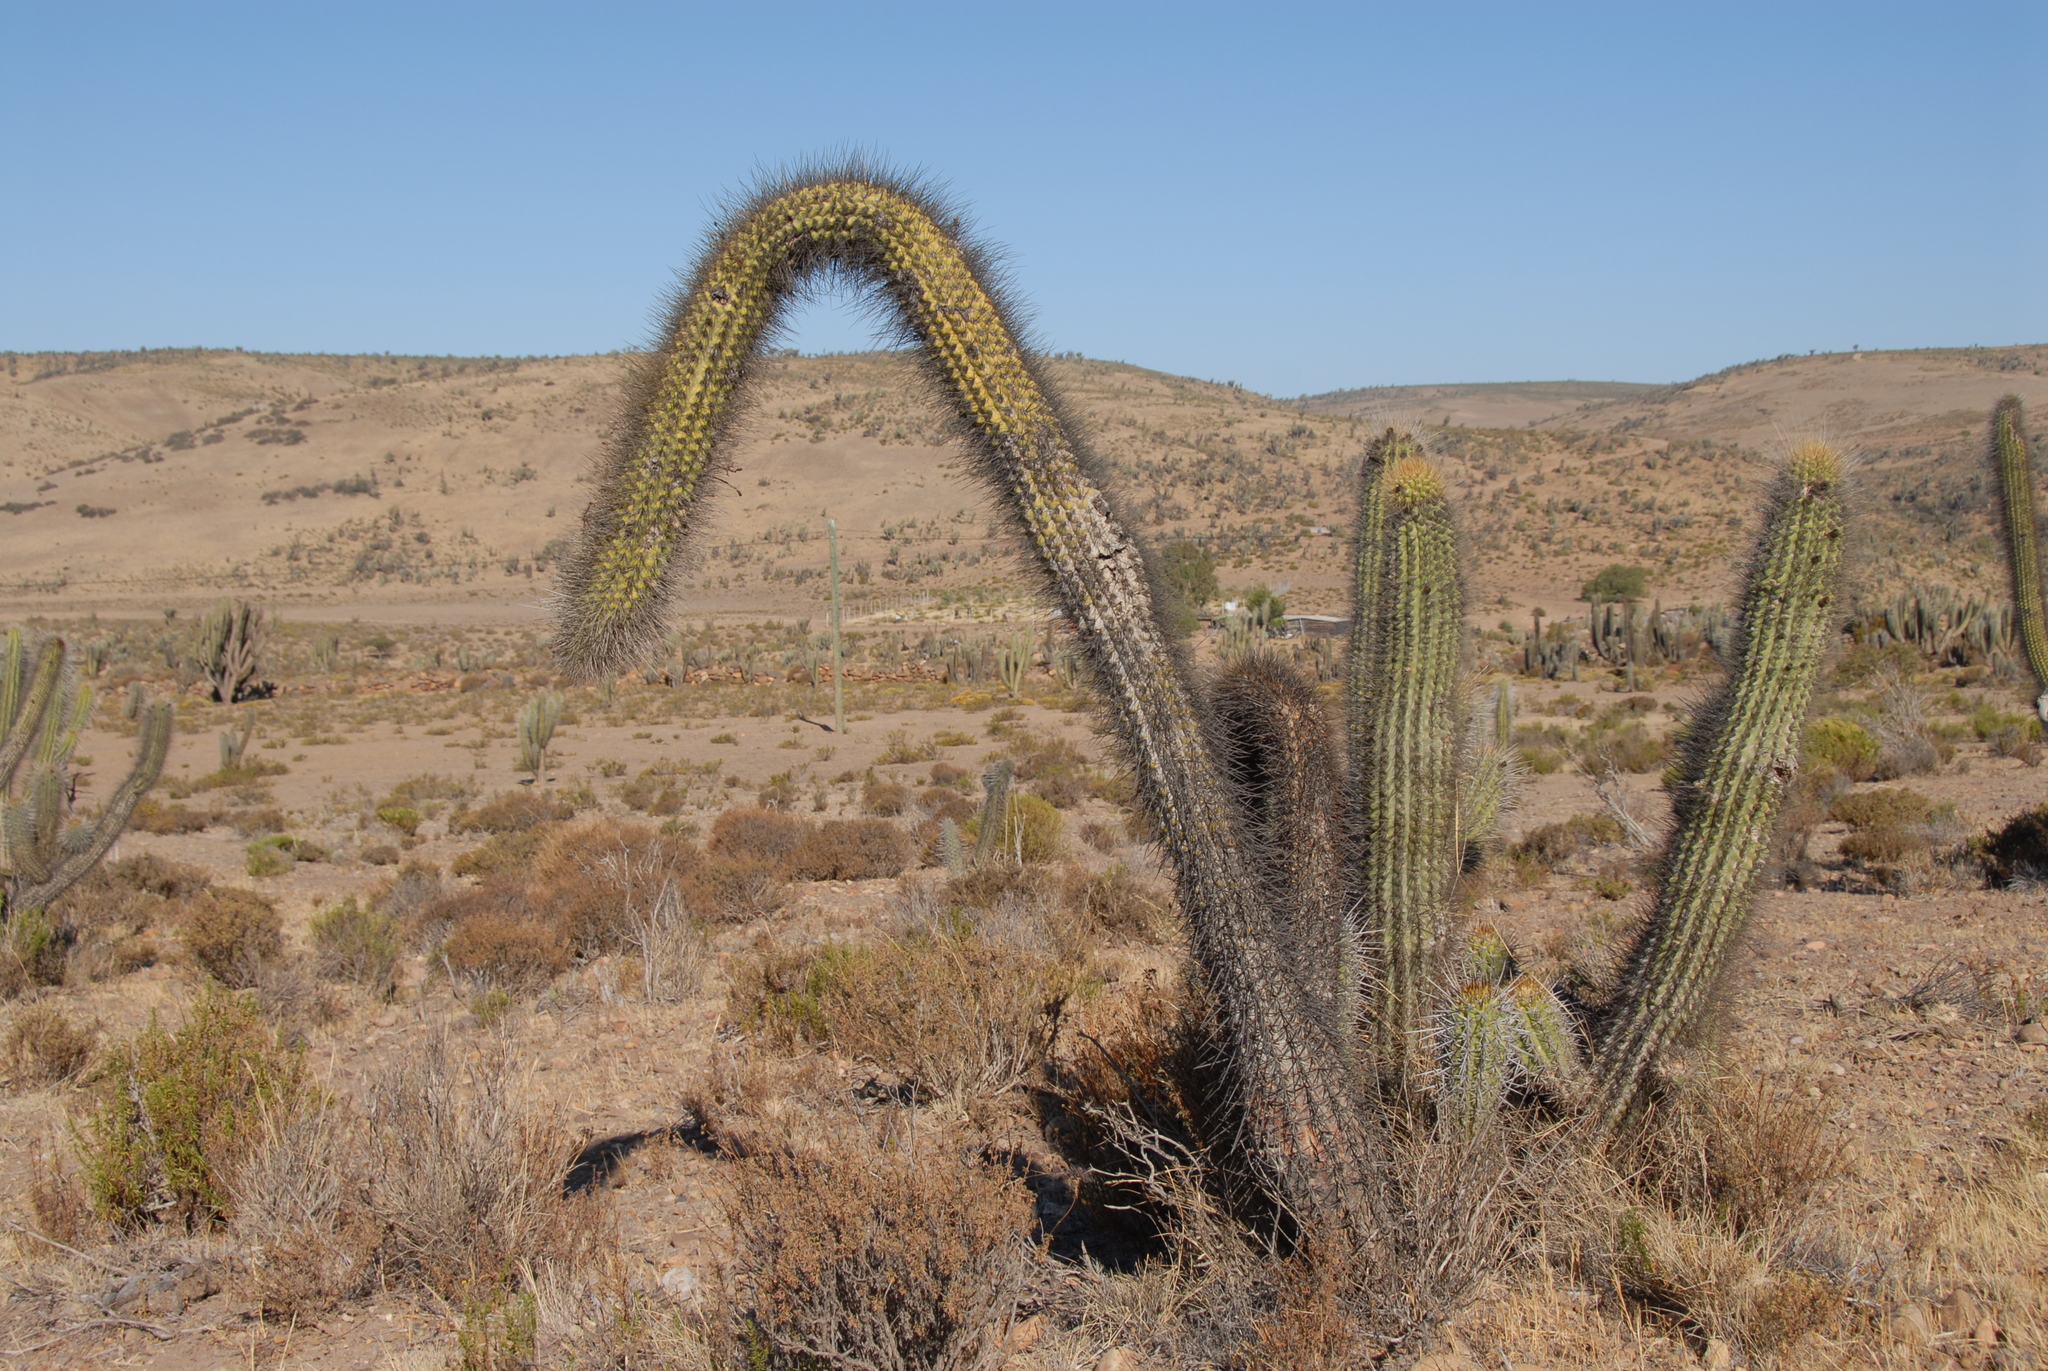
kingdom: Plantae
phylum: Tracheophyta
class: Magnoliopsida
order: Caryophyllales
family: Cactaceae
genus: Leucostele
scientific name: Leucostele chiloensis
